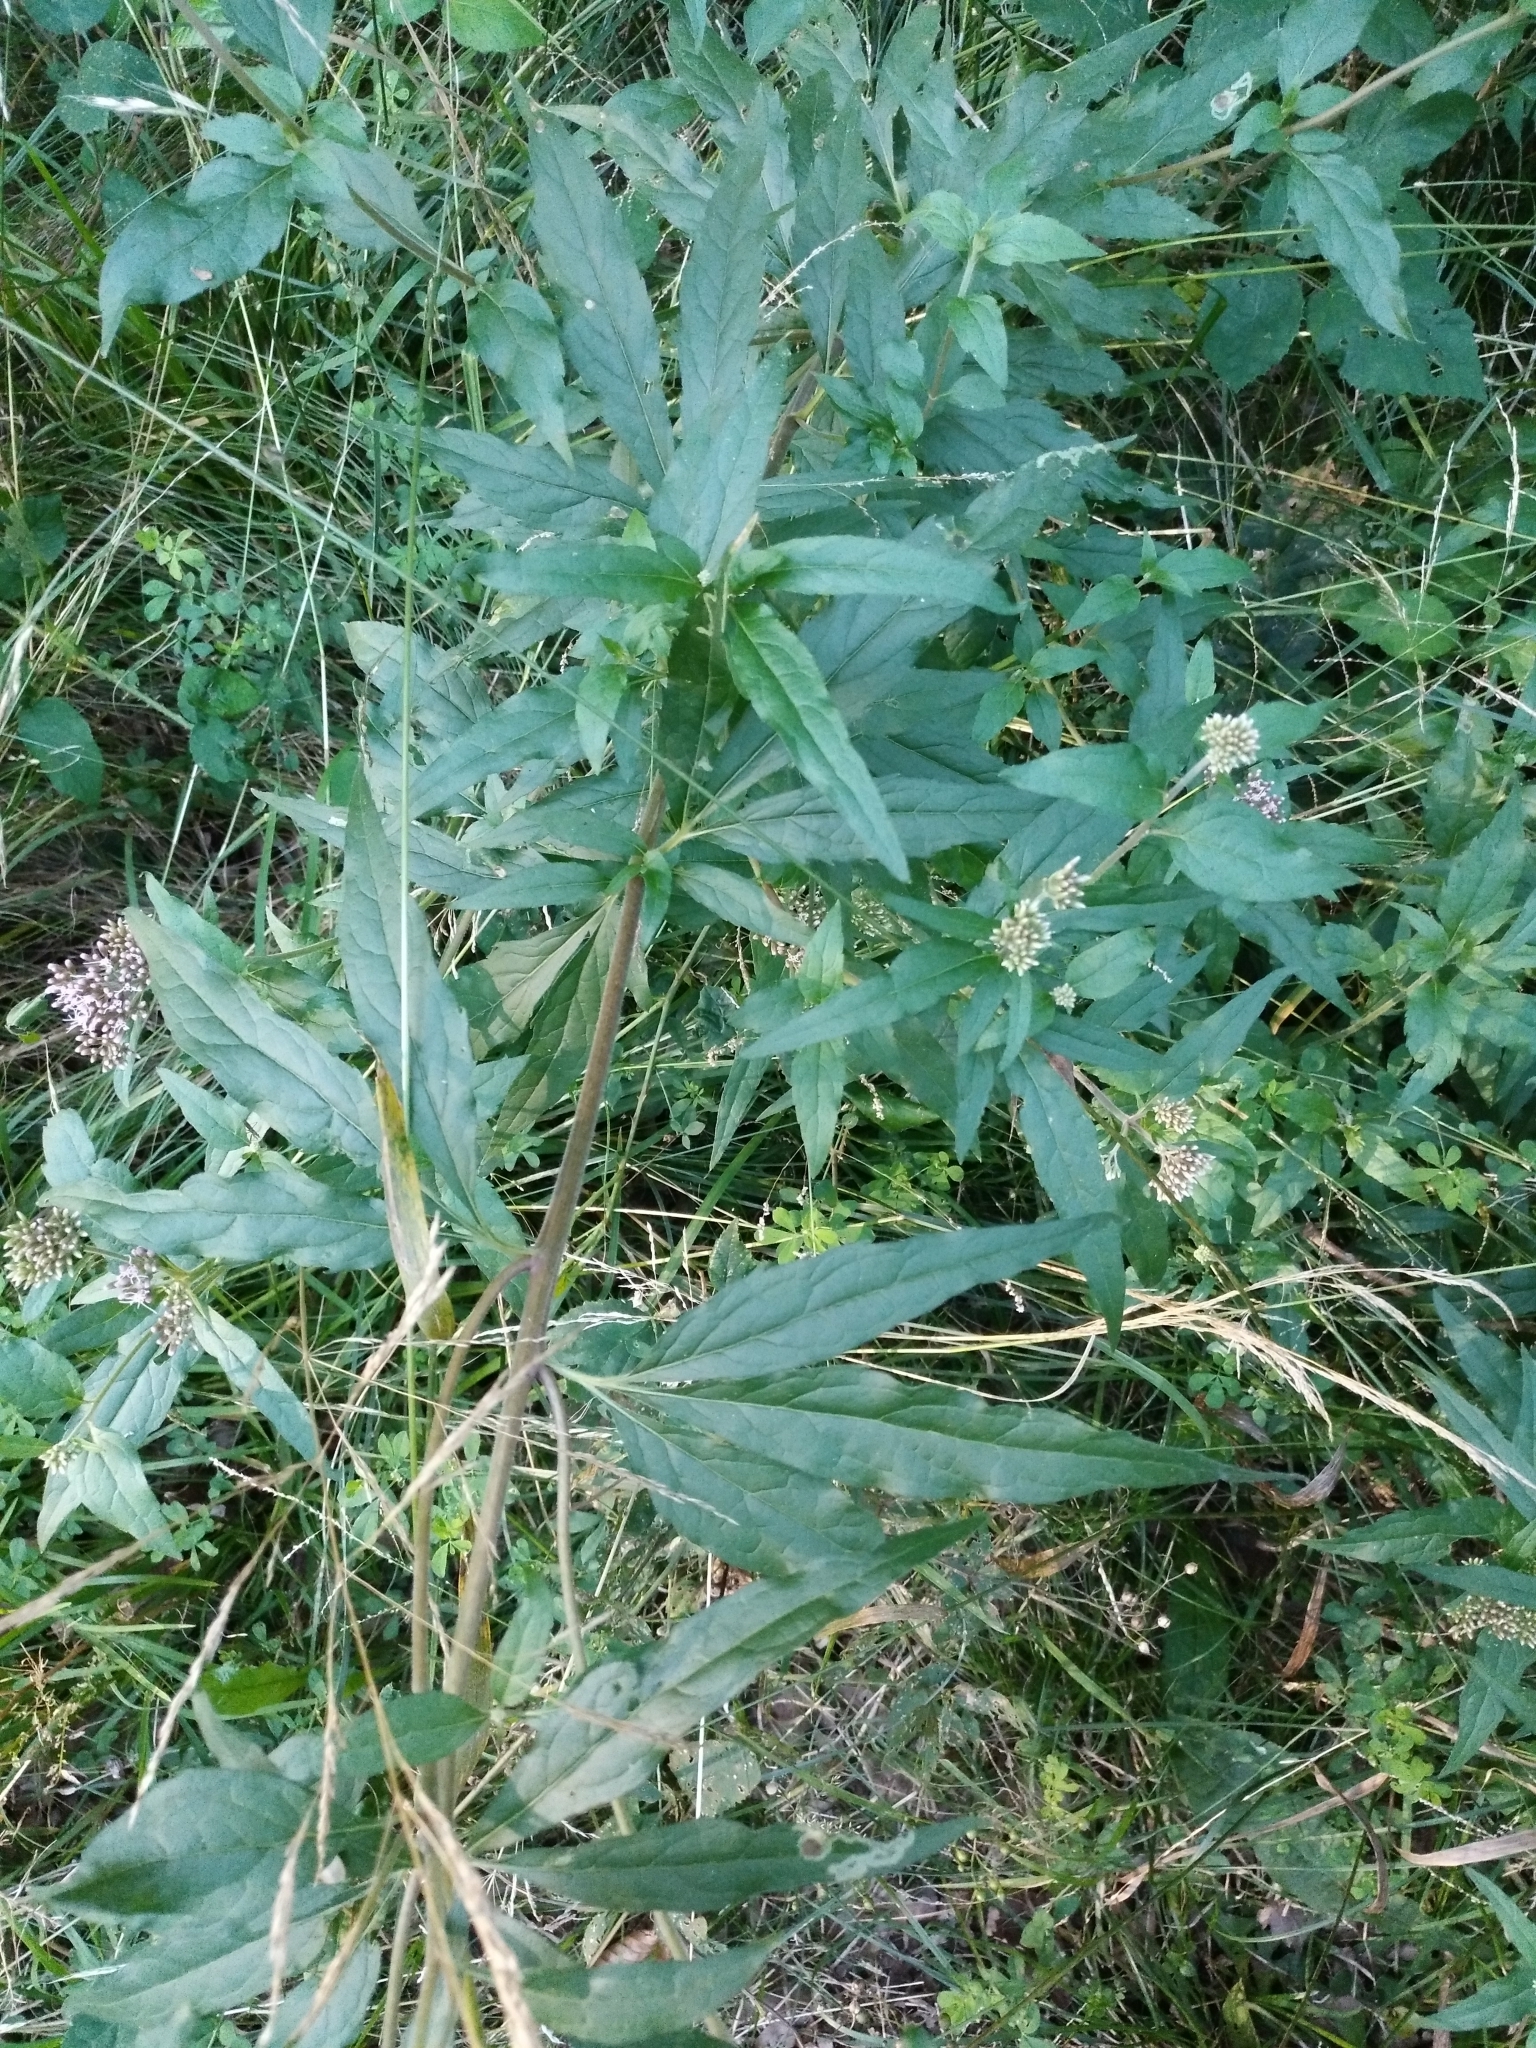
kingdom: Plantae
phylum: Tracheophyta
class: Magnoliopsida
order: Asterales
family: Asteraceae
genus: Eupatorium
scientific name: Eupatorium cannabinum
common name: Hemp-agrimony
